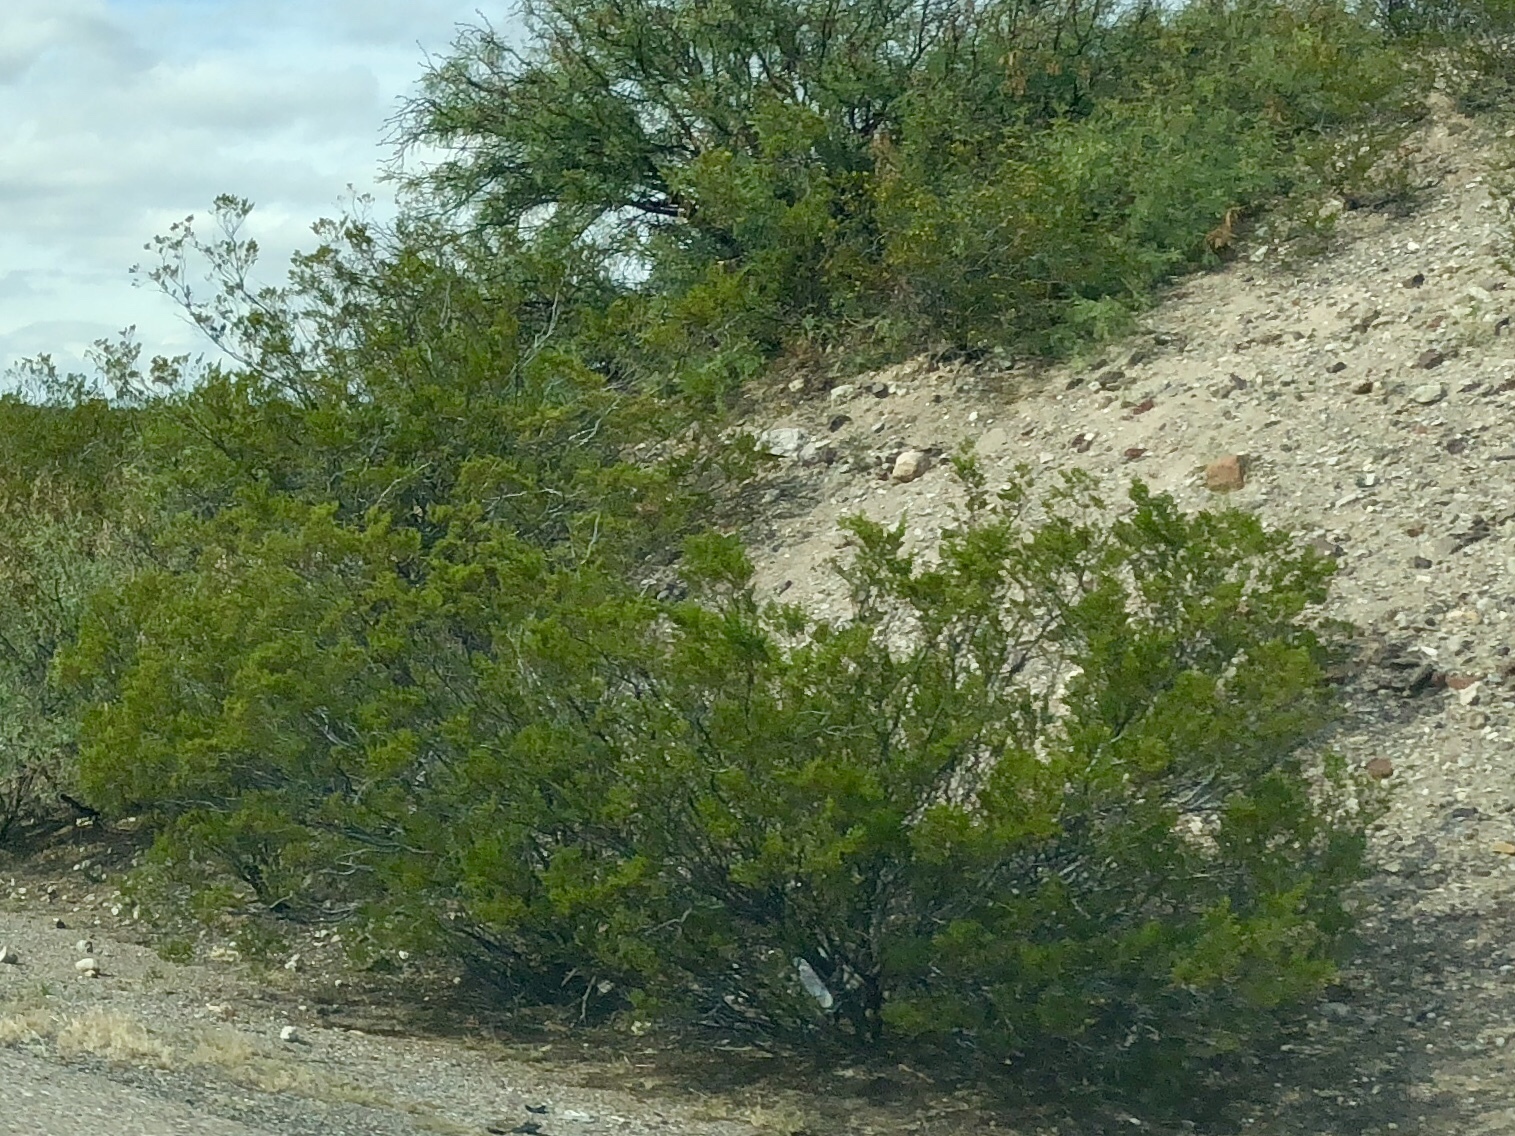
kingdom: Plantae
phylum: Tracheophyta
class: Magnoliopsida
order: Zygophyllales
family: Zygophyllaceae
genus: Larrea
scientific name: Larrea tridentata
